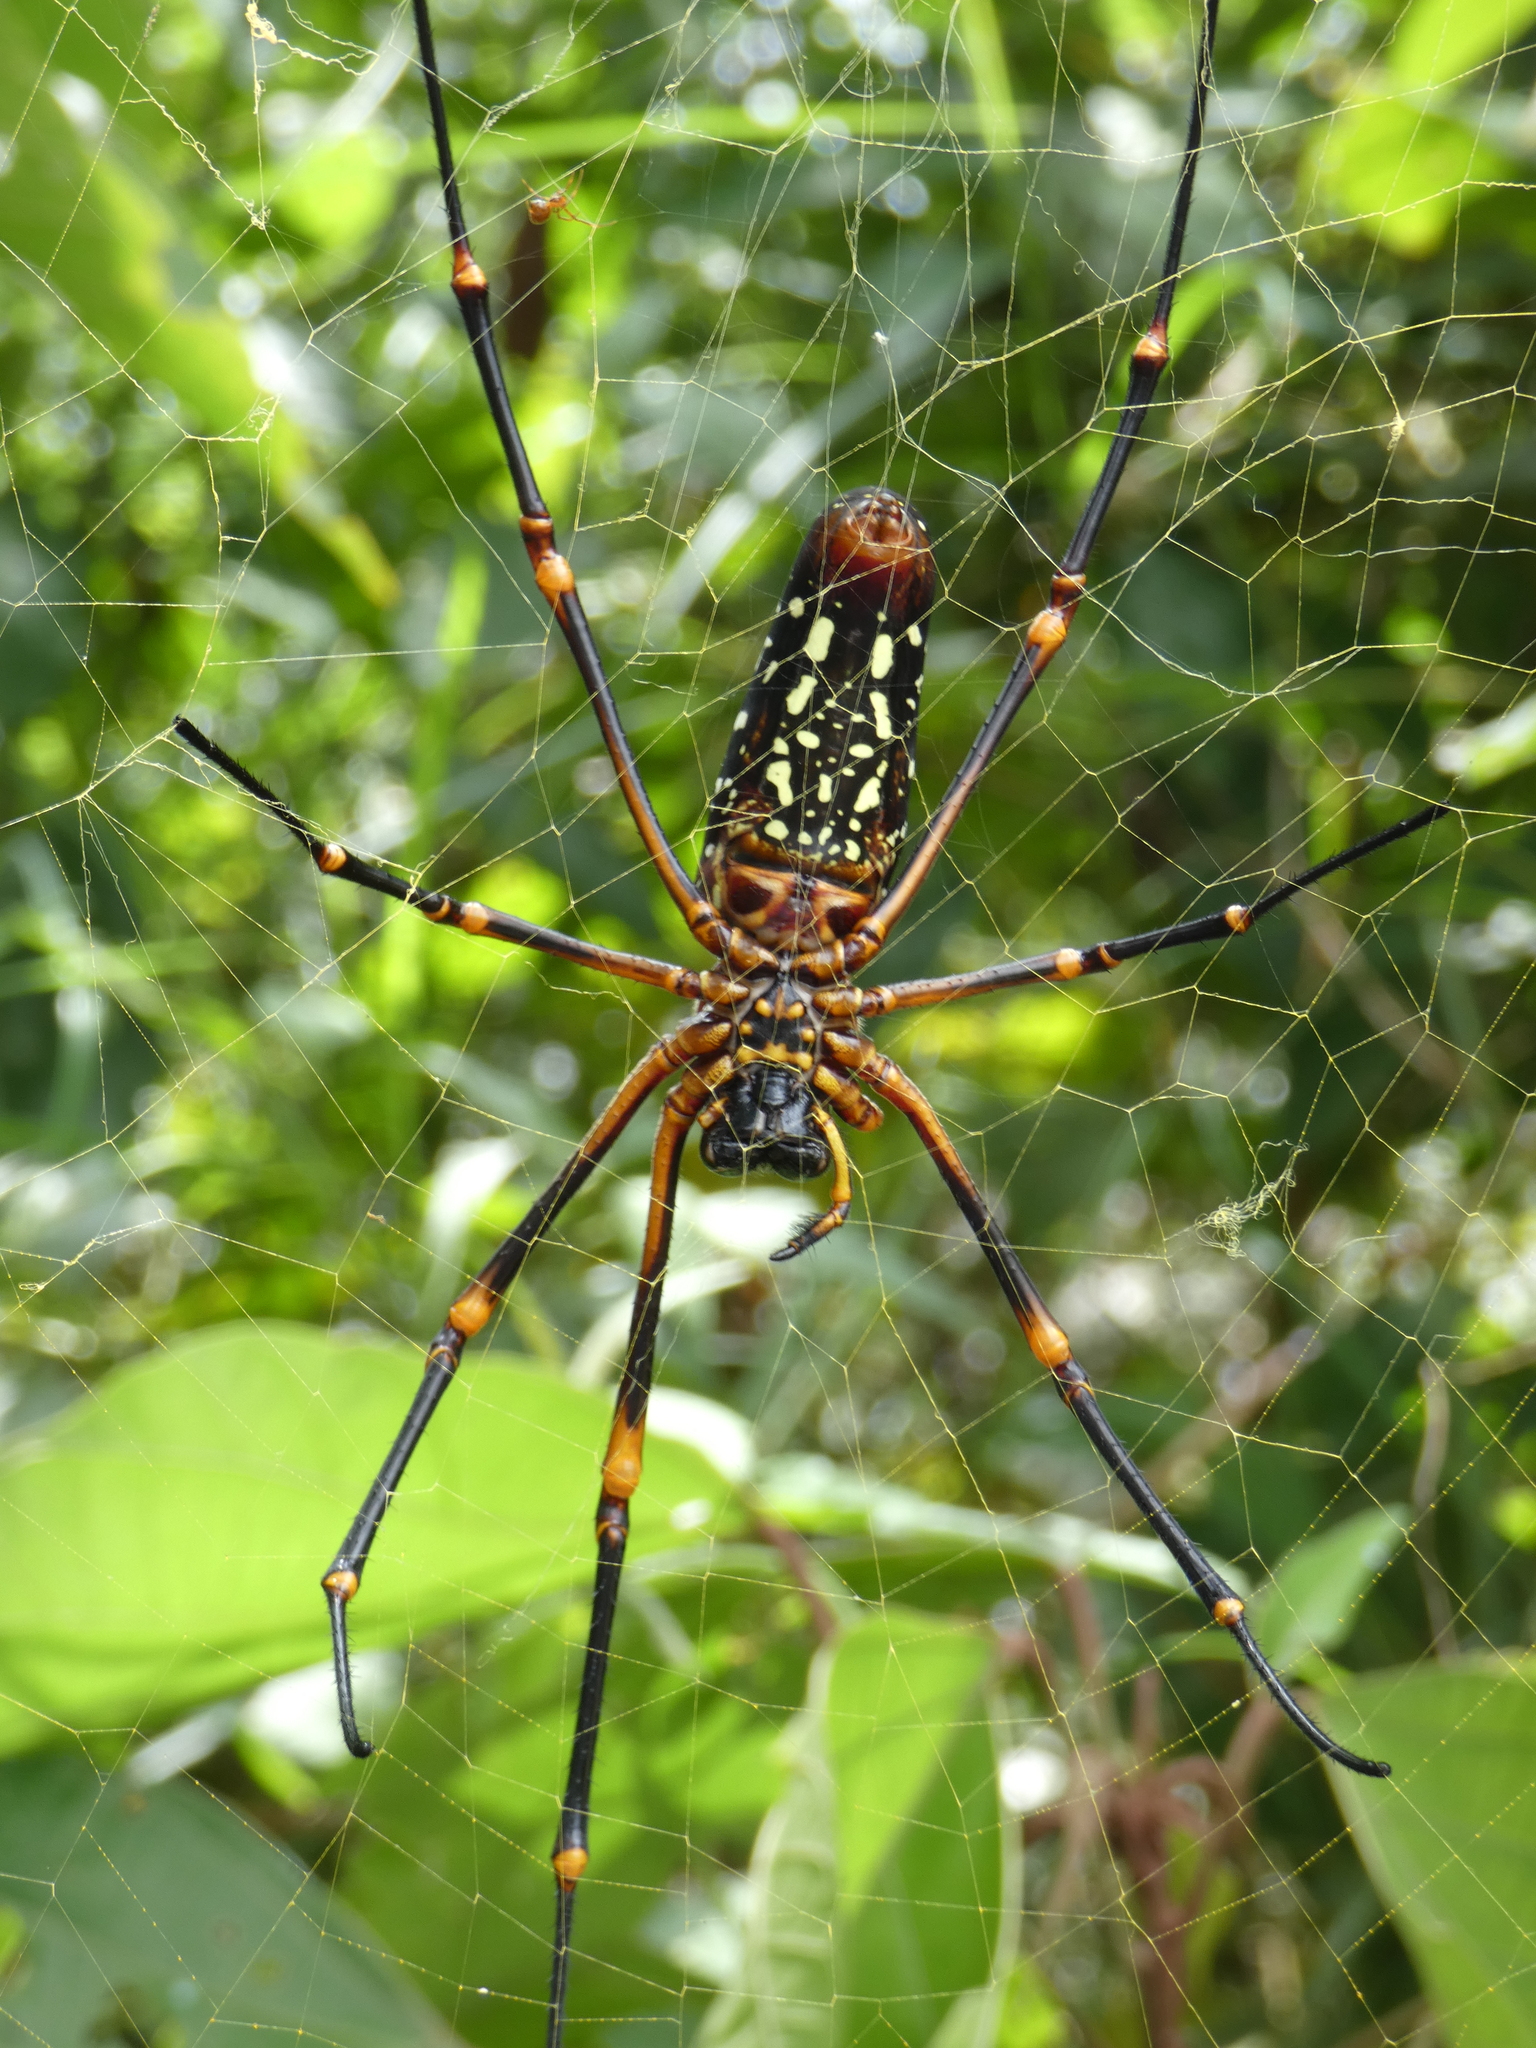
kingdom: Animalia
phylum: Arthropoda
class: Arachnida
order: Araneae
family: Araneidae
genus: Nephila
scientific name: Nephila constricta
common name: Constricted golden orb weaver
